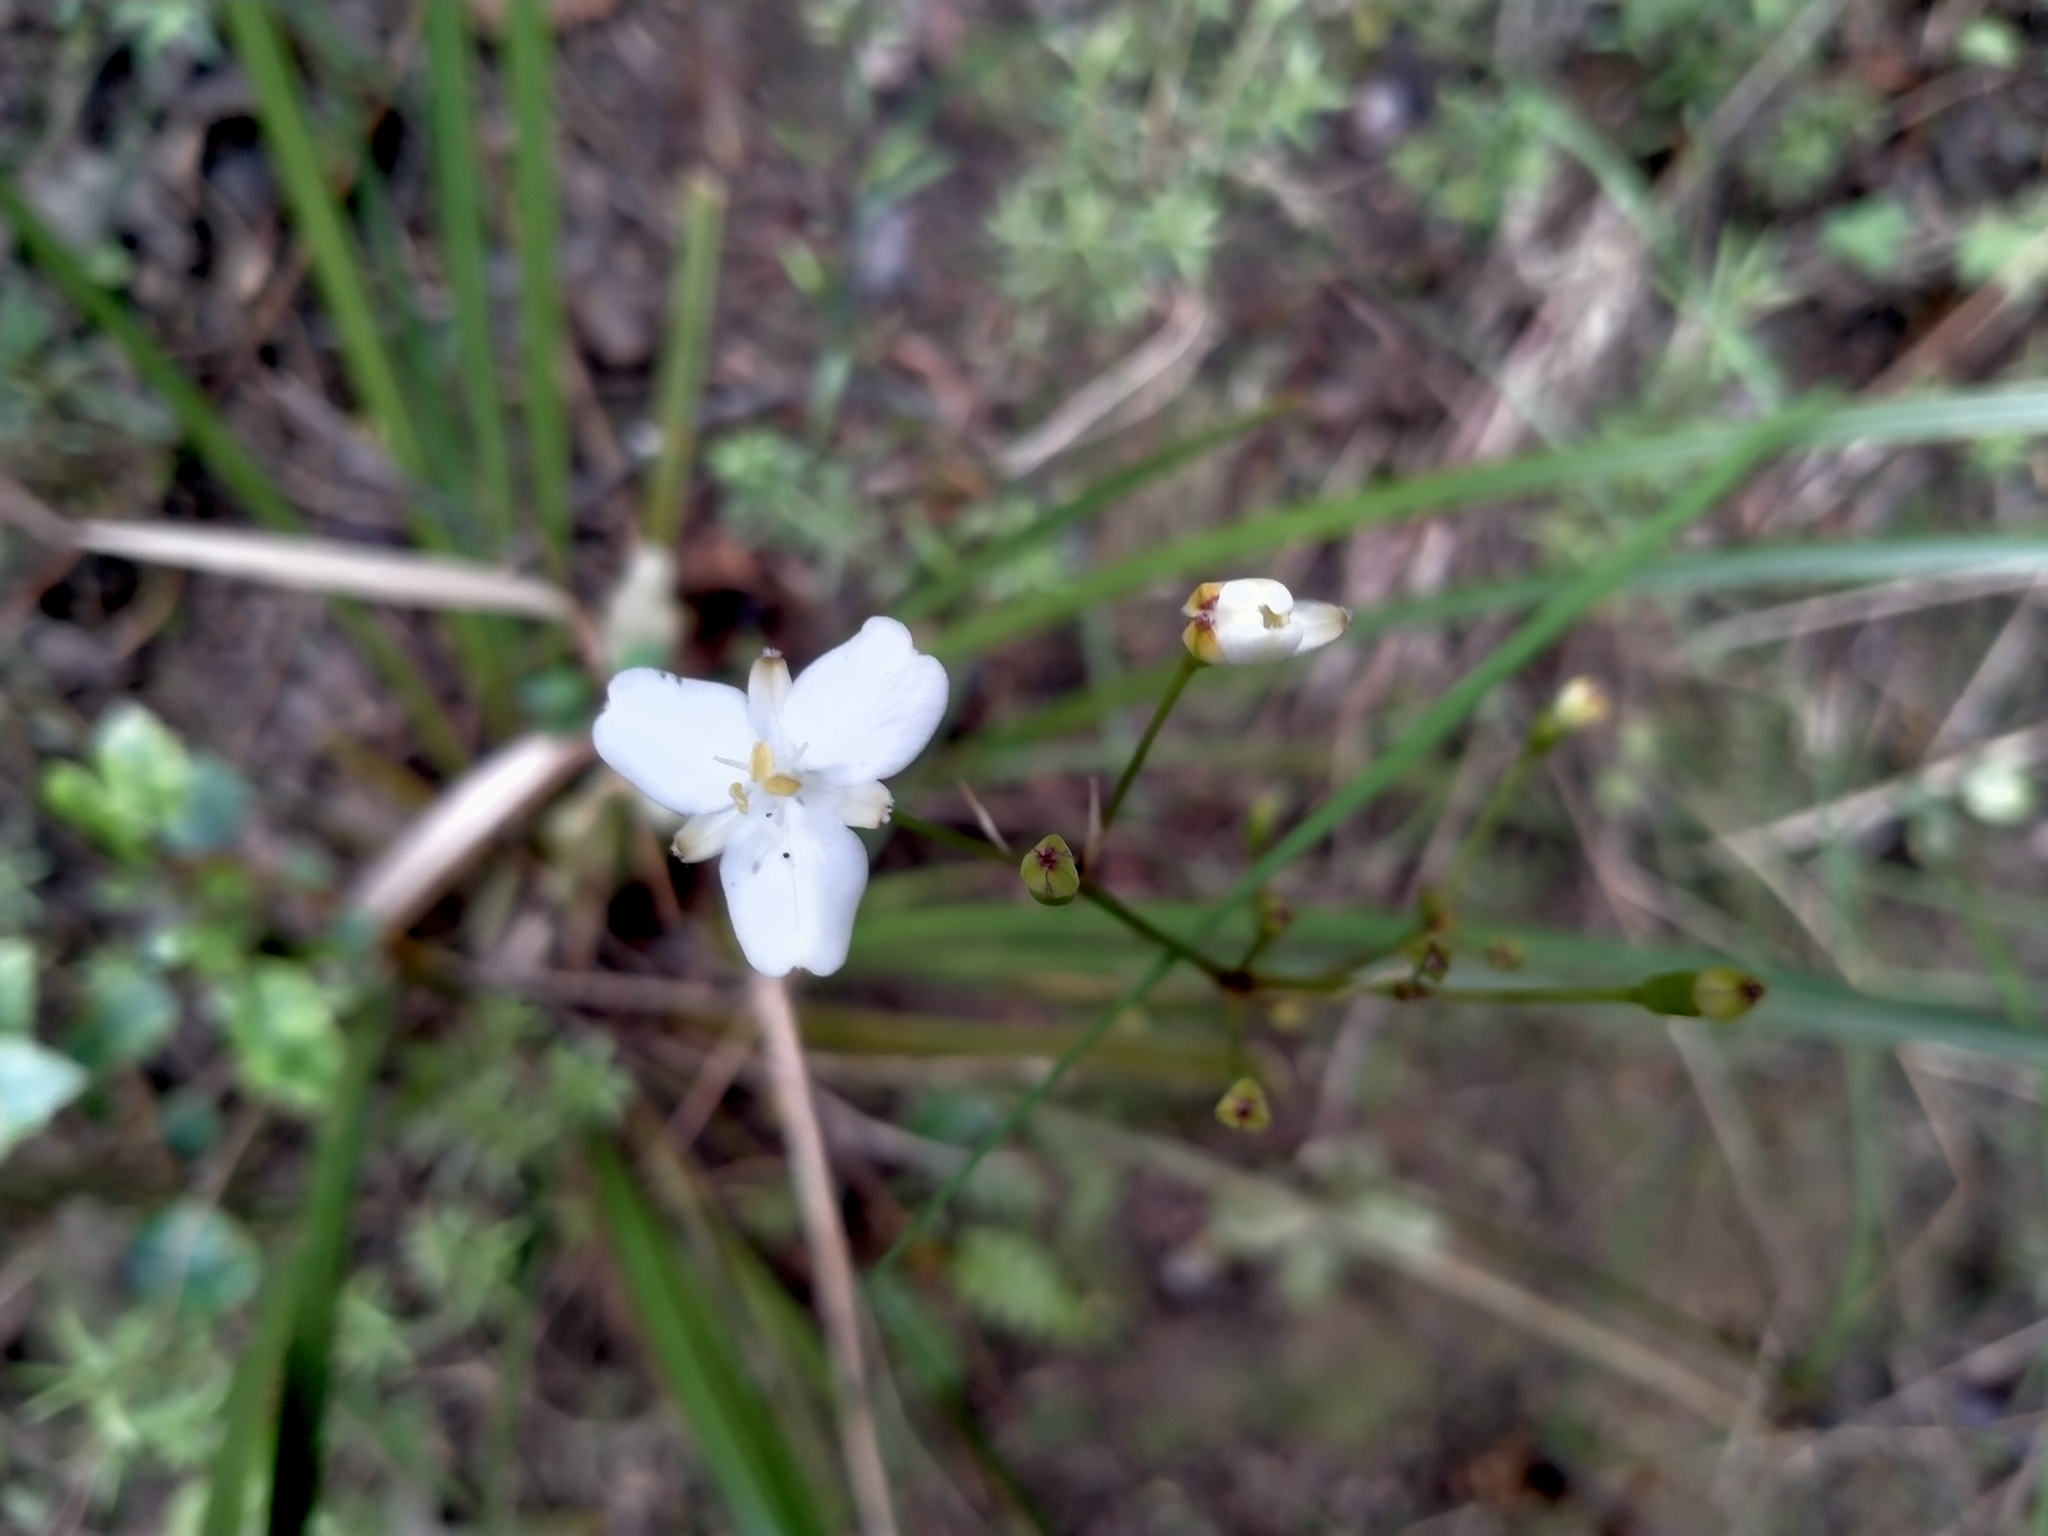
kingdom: Plantae
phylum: Tracheophyta
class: Liliopsida
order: Asparagales
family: Iridaceae
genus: Libertia
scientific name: Libertia ixioides
